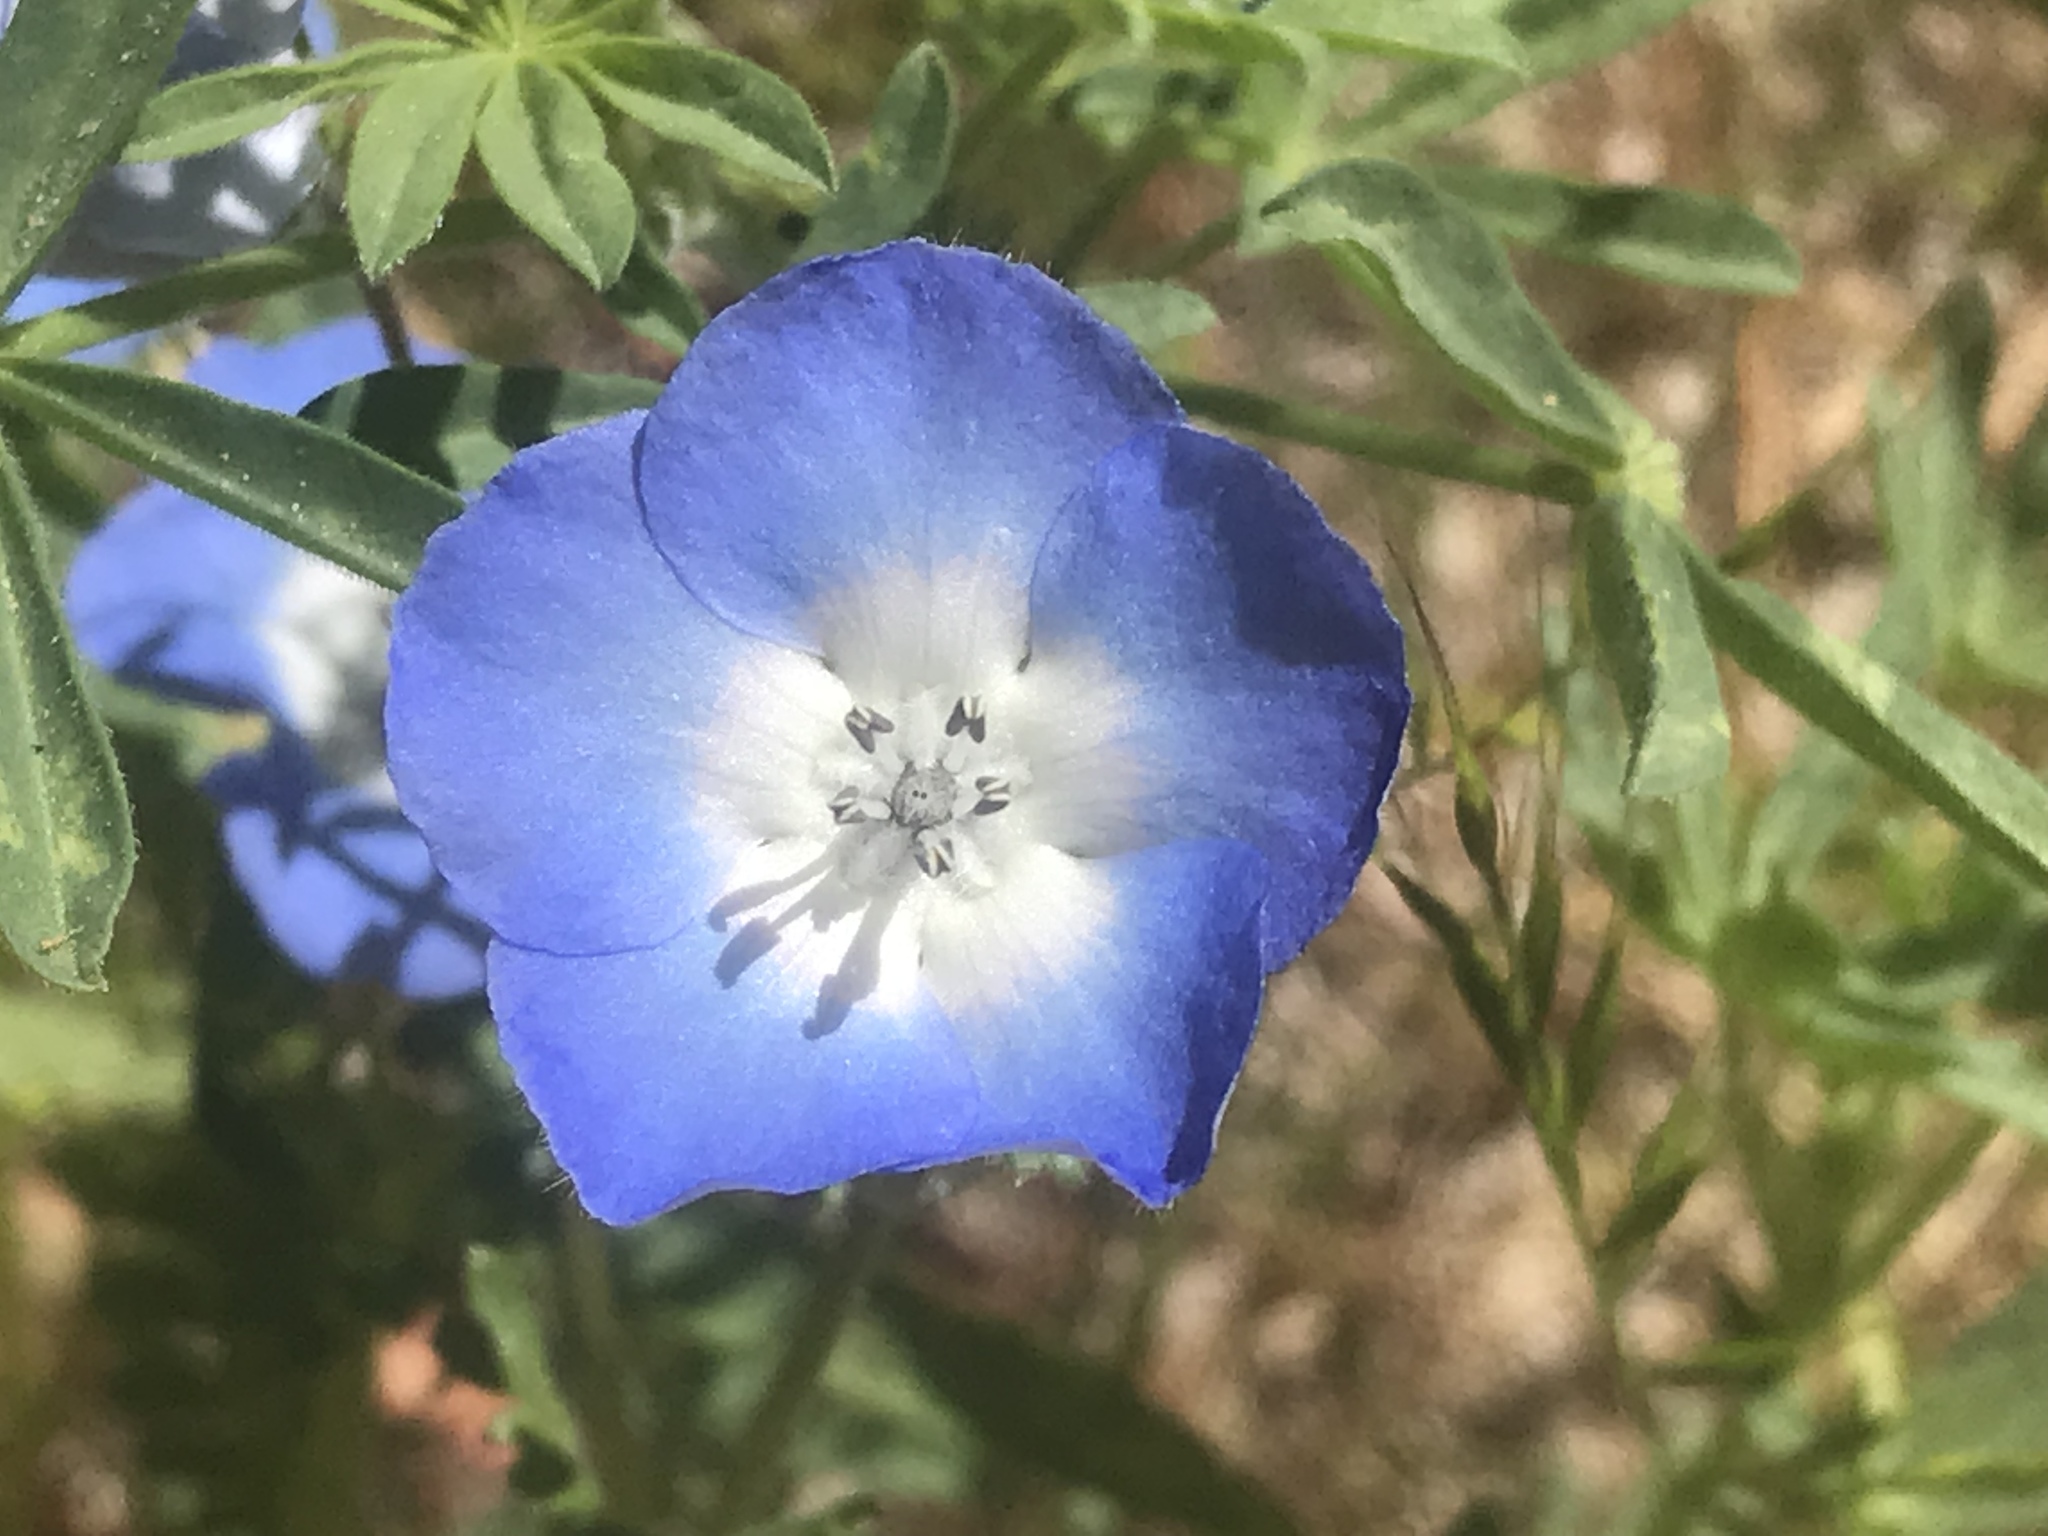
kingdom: Plantae
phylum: Tracheophyta
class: Magnoliopsida
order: Boraginales
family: Hydrophyllaceae
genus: Nemophila
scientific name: Nemophila menziesii
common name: Baby's-blue-eyes
